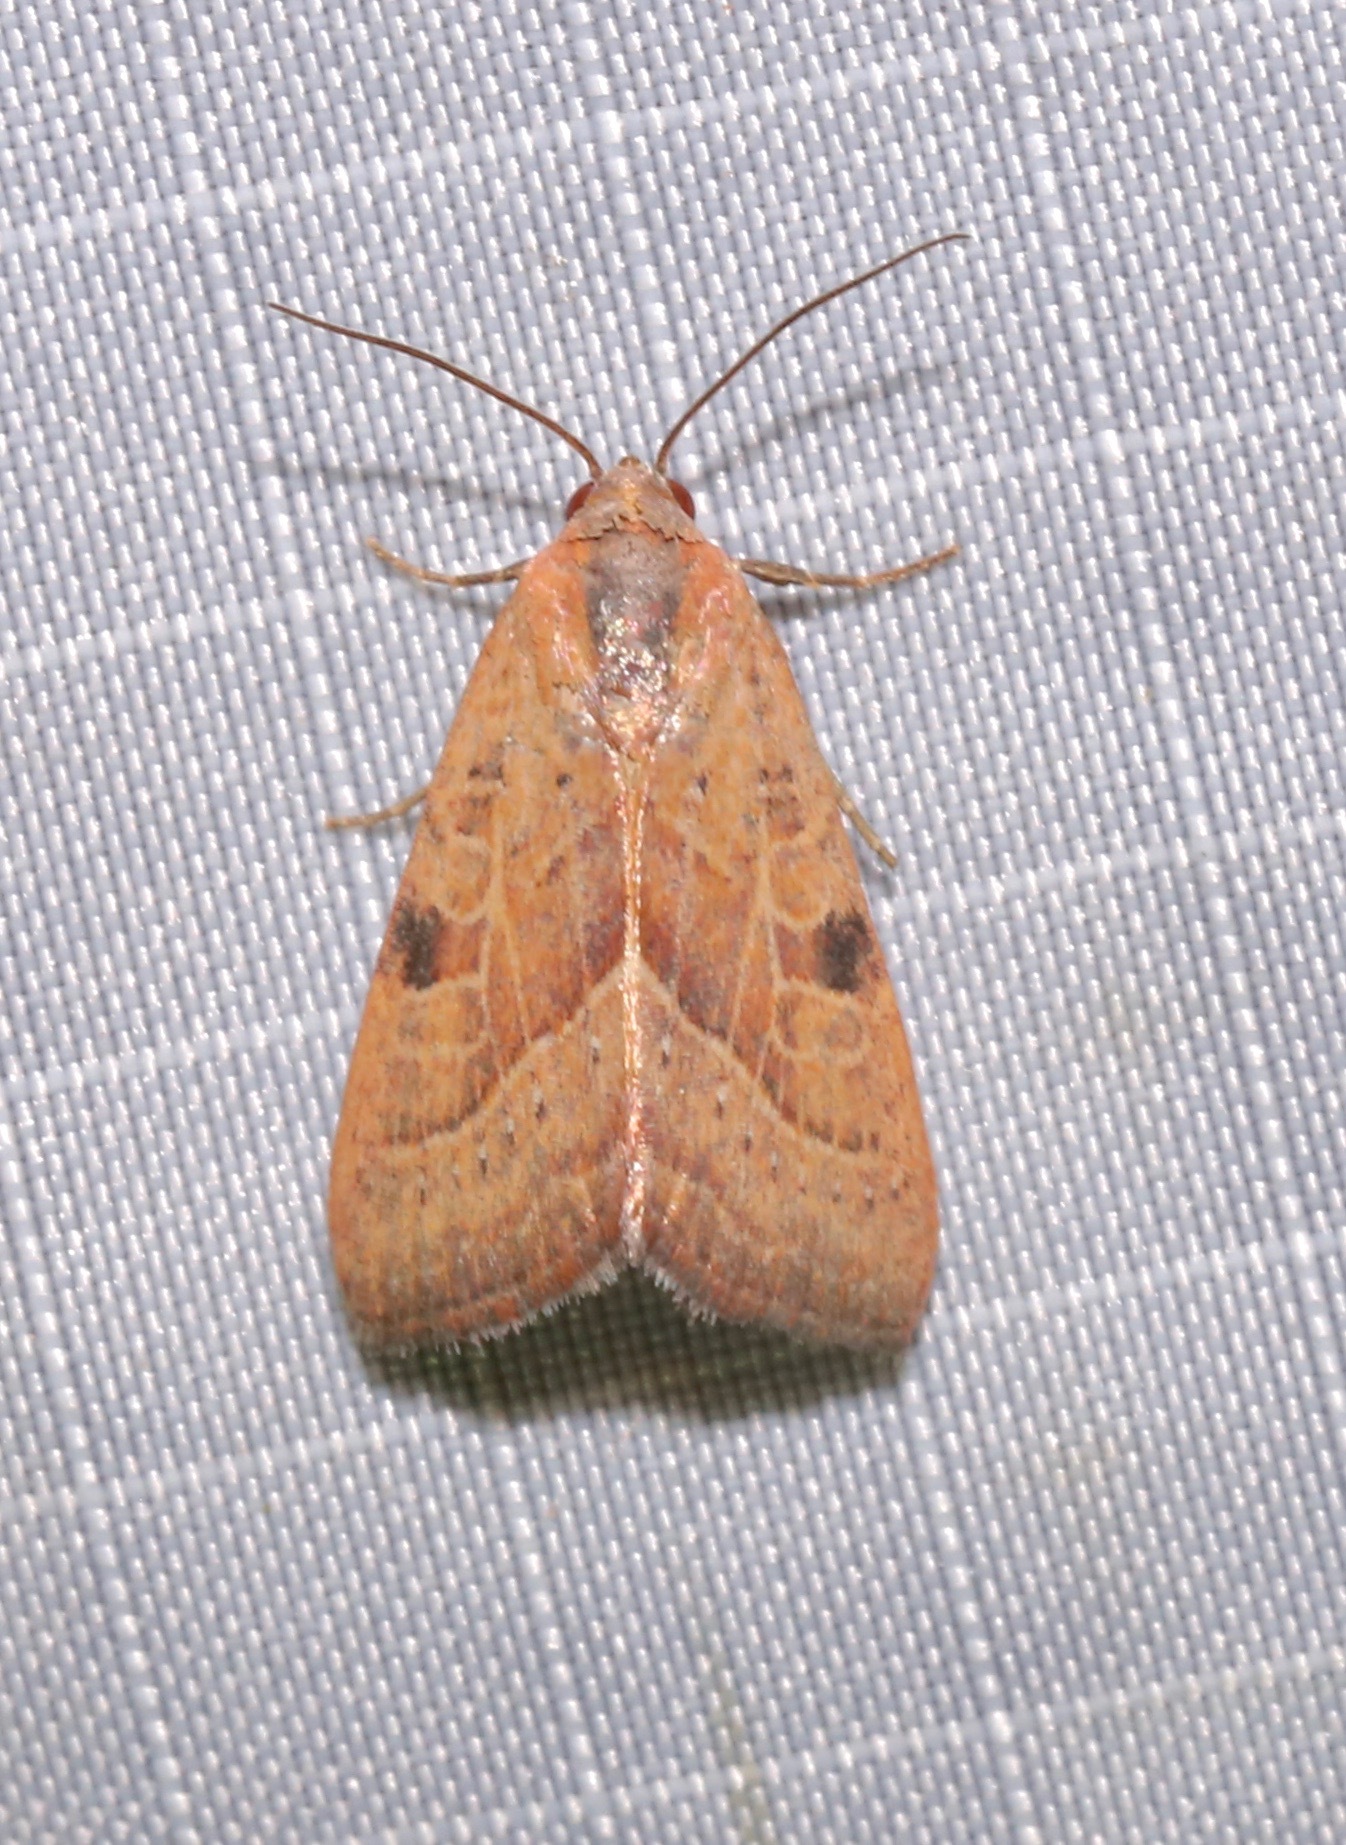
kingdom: Animalia
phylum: Arthropoda
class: Insecta
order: Lepidoptera
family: Noctuidae
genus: Galgula
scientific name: Galgula partita
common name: Wedgeling
